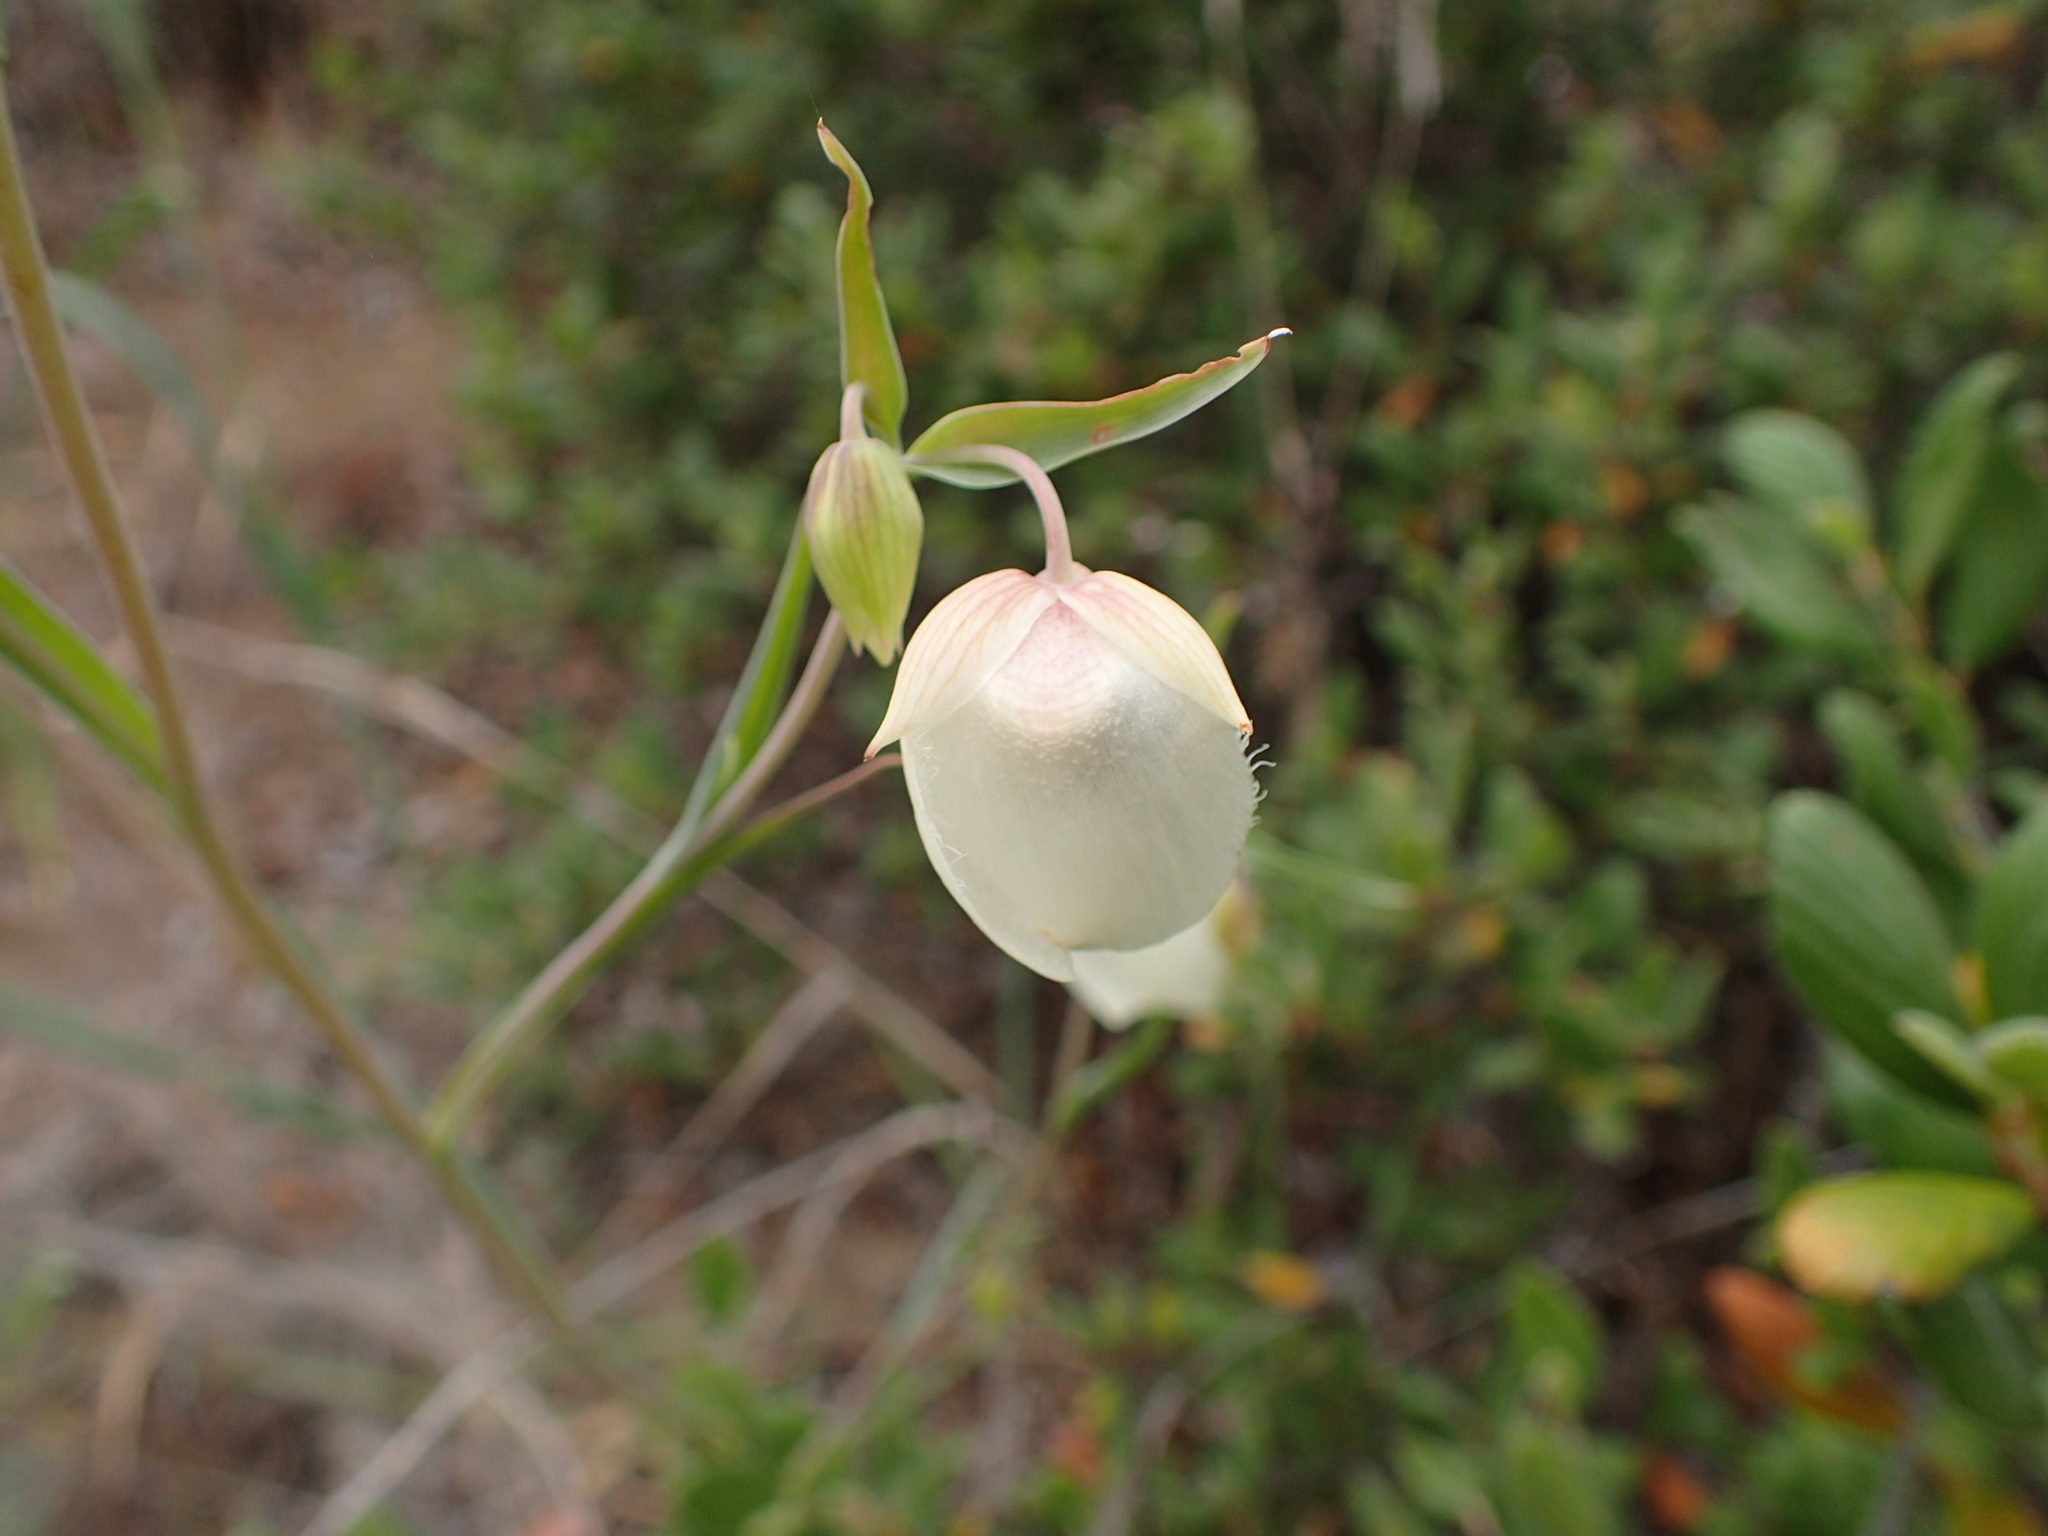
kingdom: Plantae
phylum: Tracheophyta
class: Liliopsida
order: Liliales
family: Liliaceae
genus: Calochortus
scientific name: Calochortus albus
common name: Fairy-lantern
